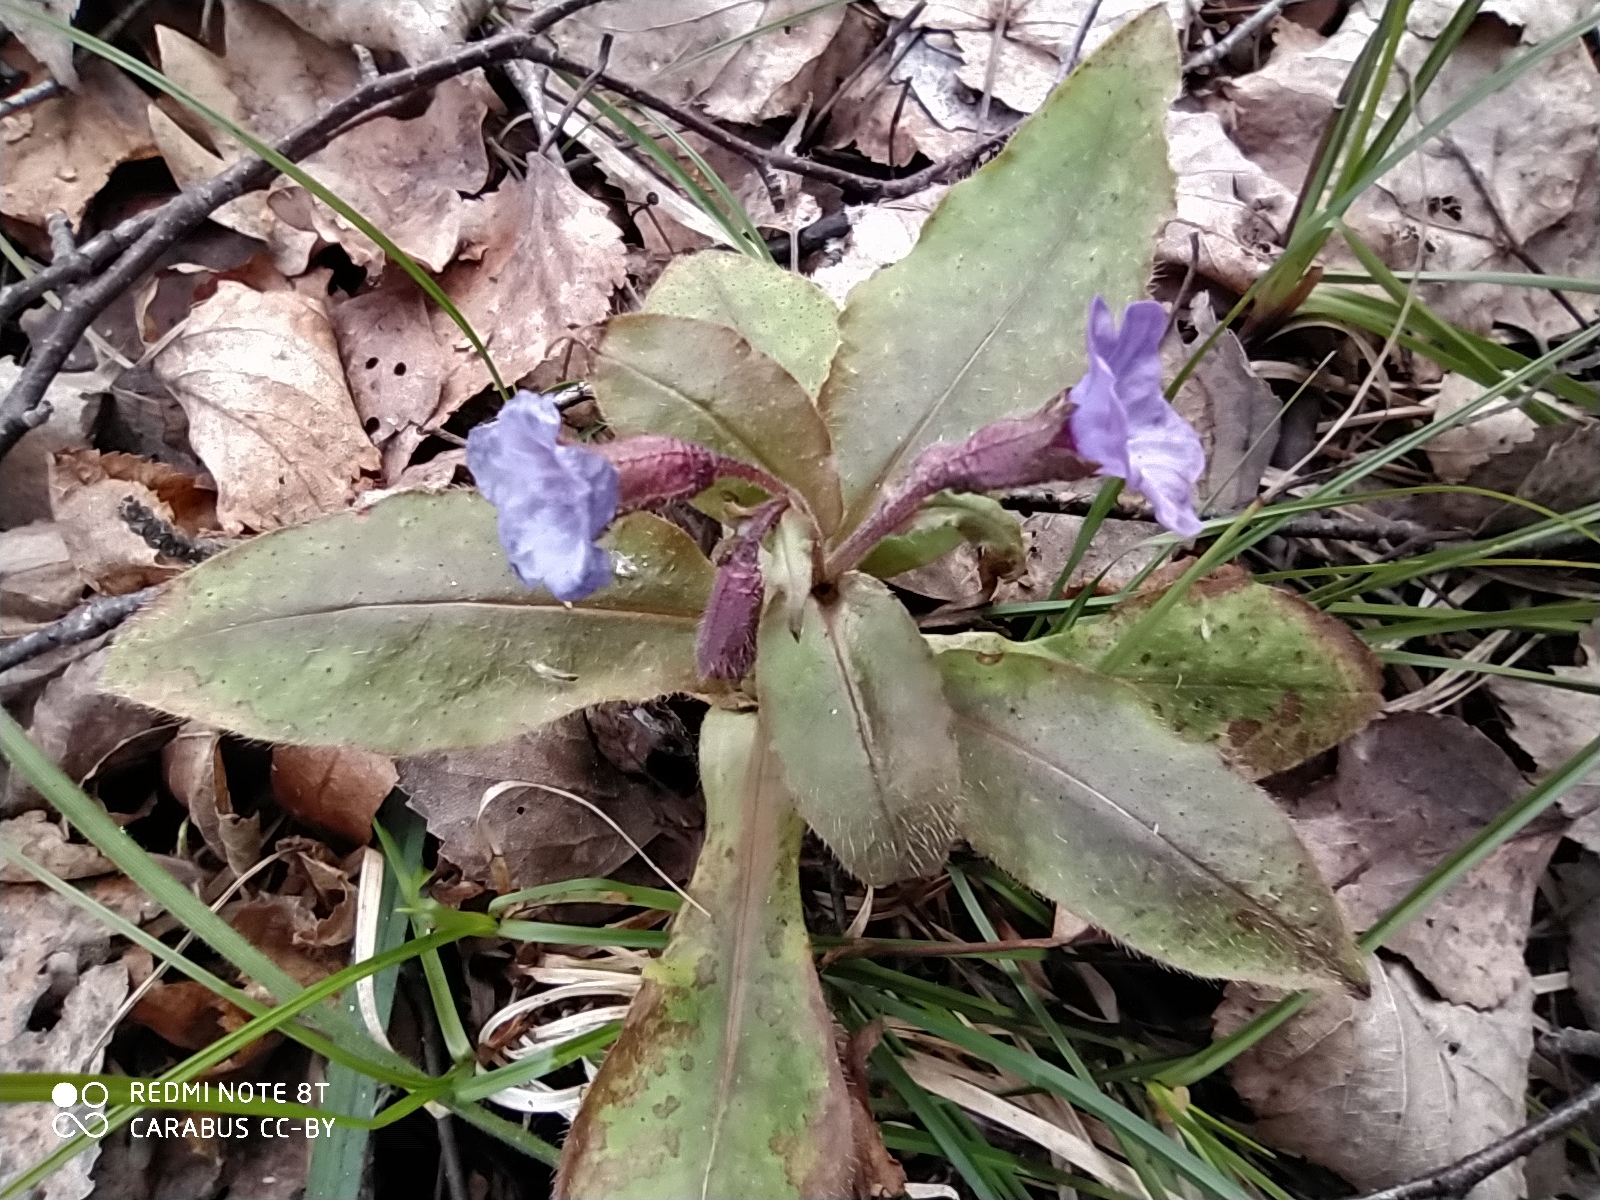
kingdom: Plantae
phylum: Tracheophyta
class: Magnoliopsida
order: Boraginales
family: Boraginaceae
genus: Pulmonaria
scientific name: Pulmonaria obscura
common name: Suffolk lungwort
